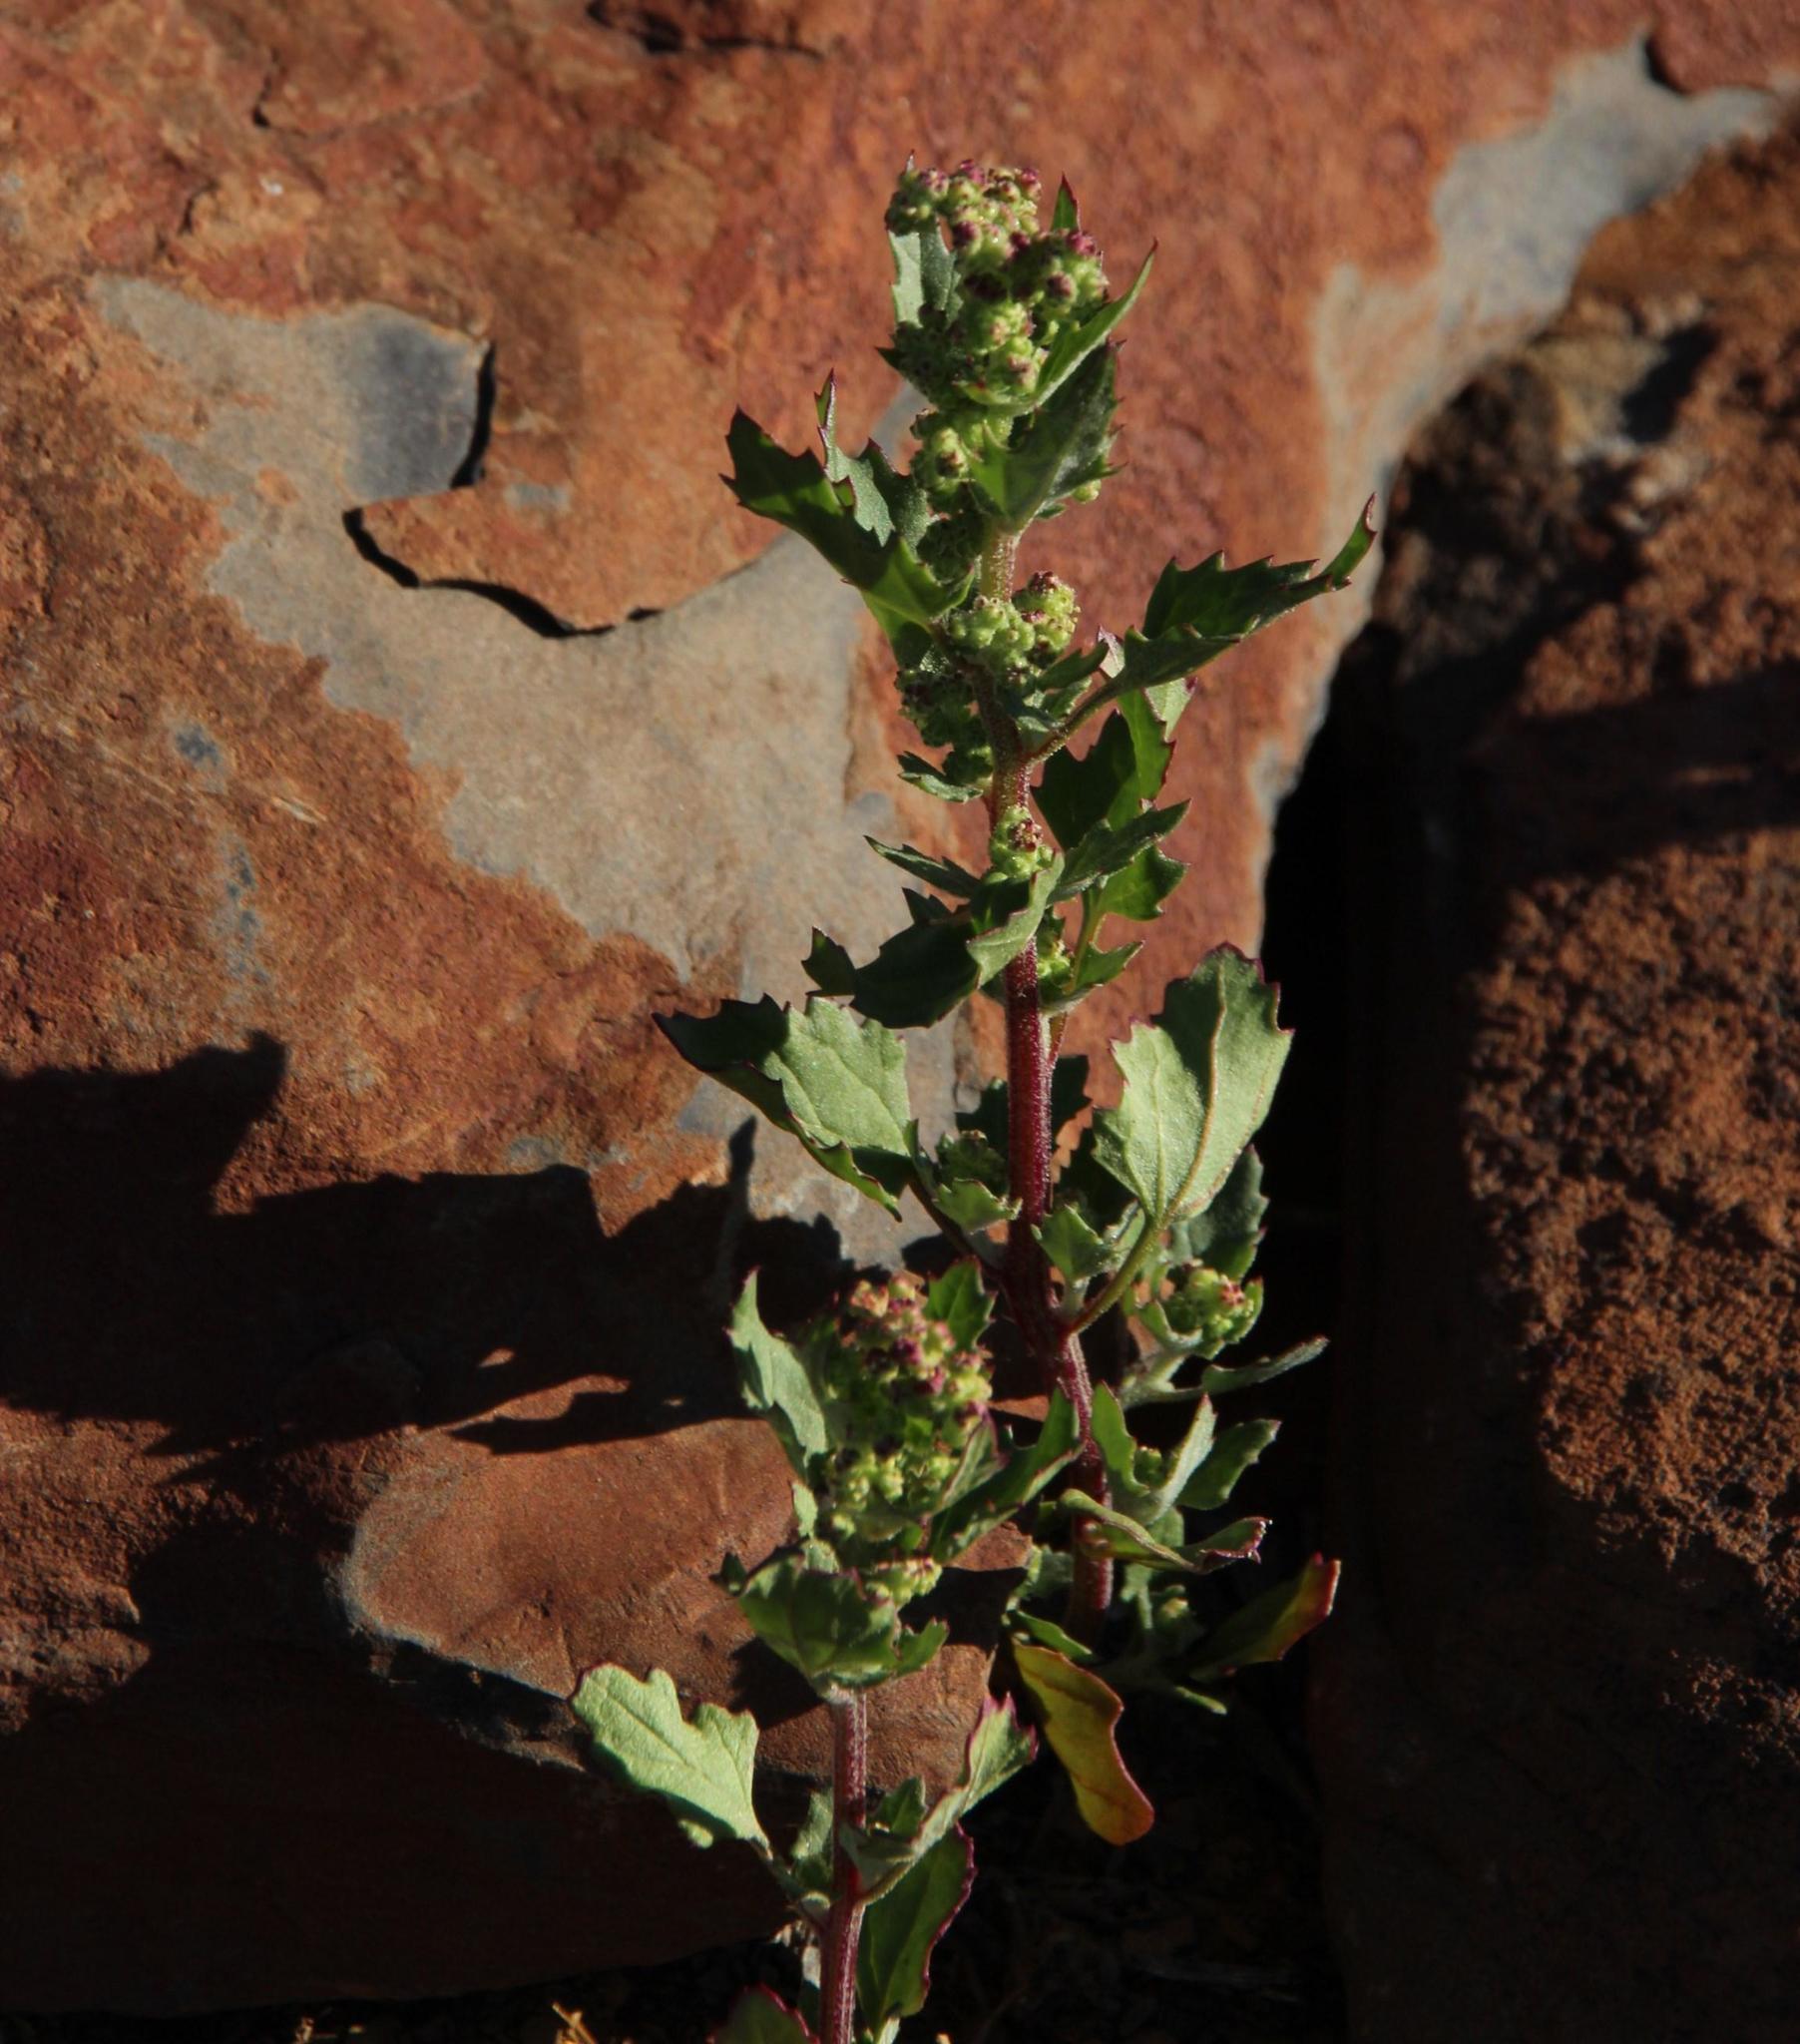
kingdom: Plantae
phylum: Tracheophyta
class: Magnoliopsida
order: Caryophyllales
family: Amaranthaceae
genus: Chenopodiastrum
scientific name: Chenopodiastrum murale
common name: Sowbane
